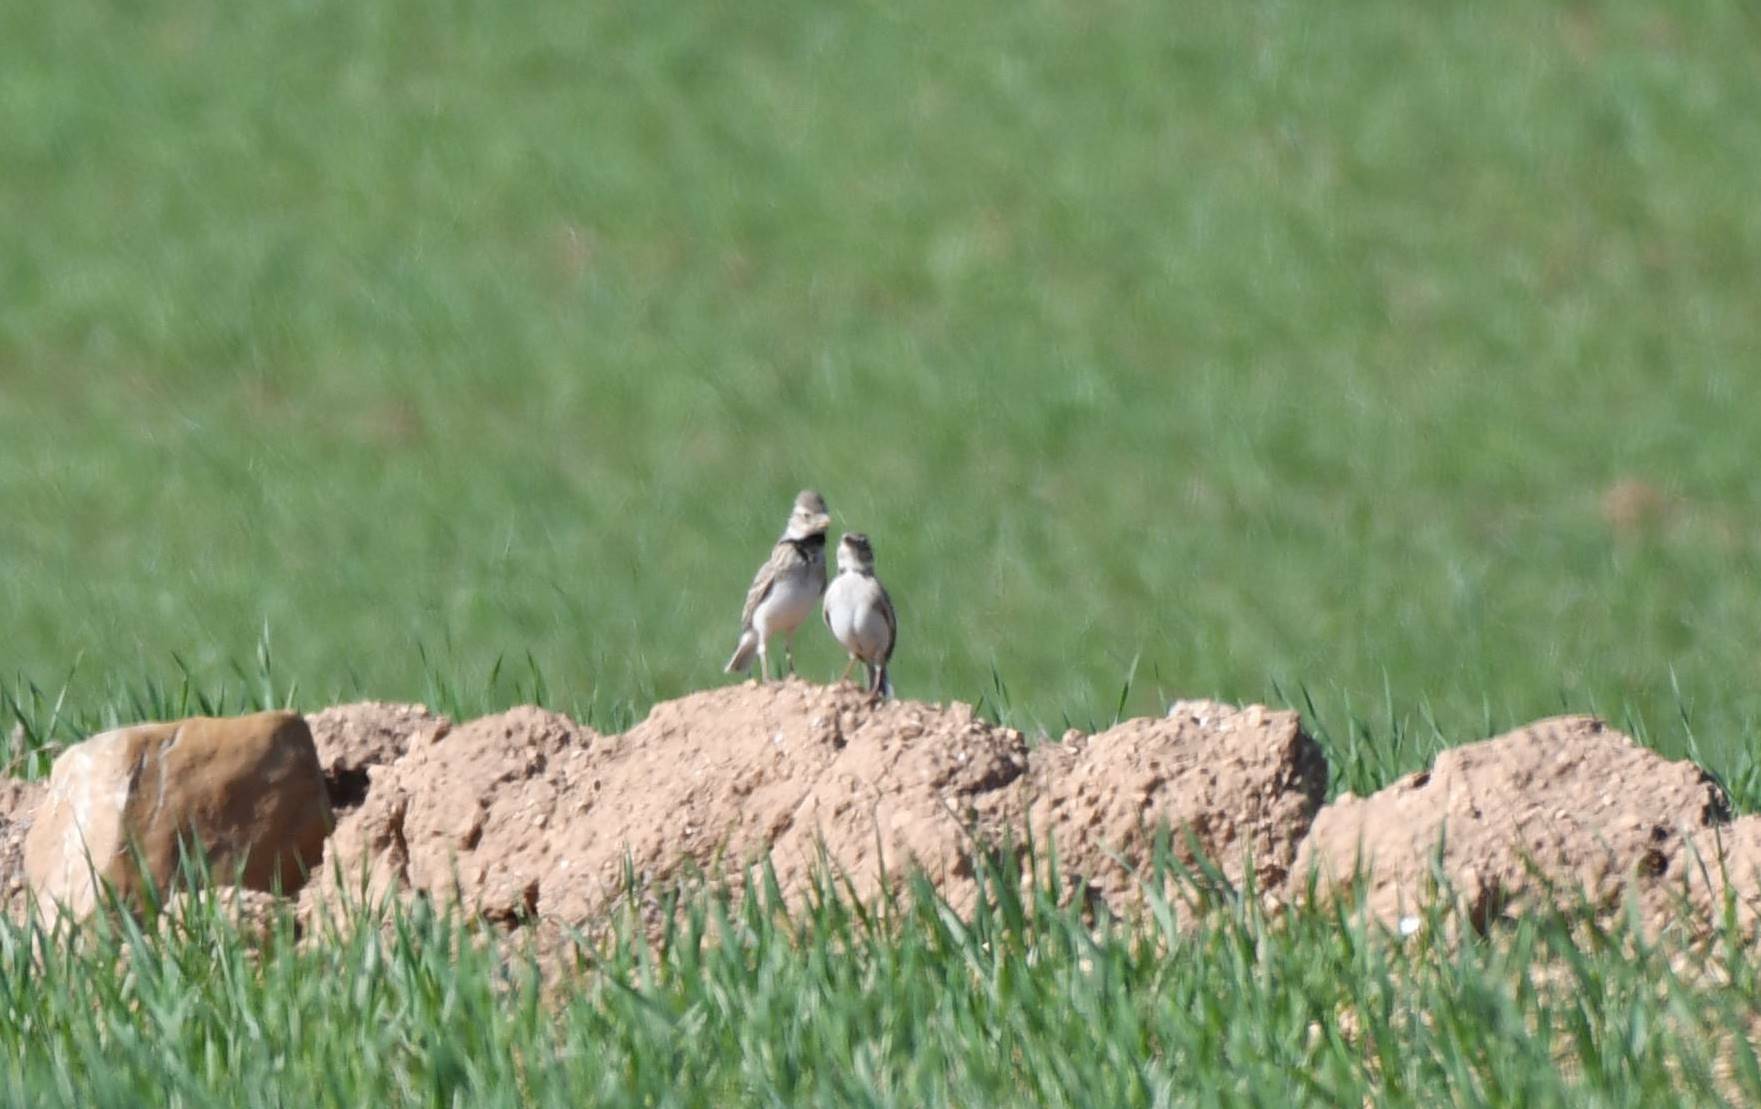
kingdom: Animalia
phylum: Chordata
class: Aves
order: Passeriformes
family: Alaudidae
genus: Melanocorypha
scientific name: Melanocorypha calandra
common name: Calandra lark
